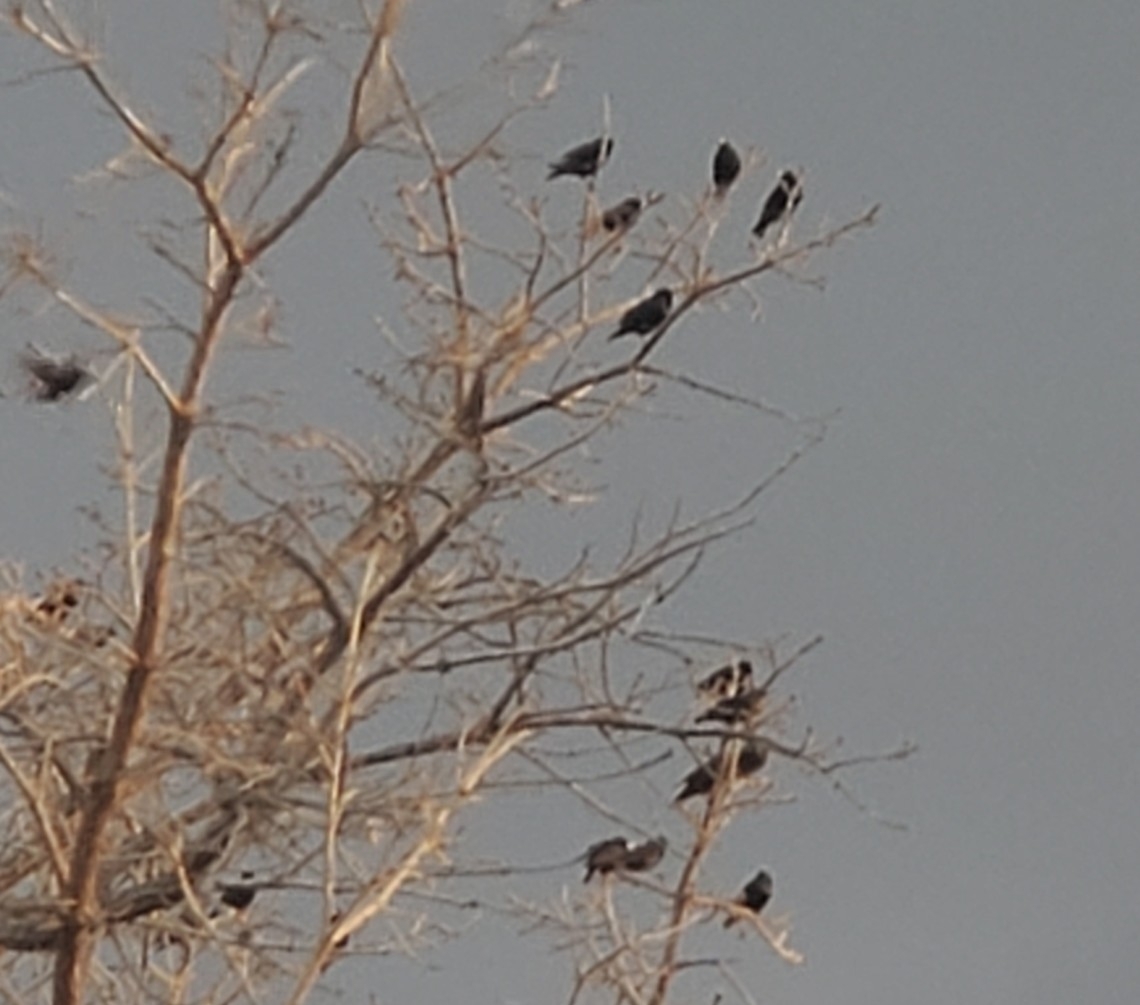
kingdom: Animalia
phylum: Chordata
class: Aves
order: Passeriformes
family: Sturnidae
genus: Sturnus
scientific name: Sturnus vulgaris
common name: Common starling
